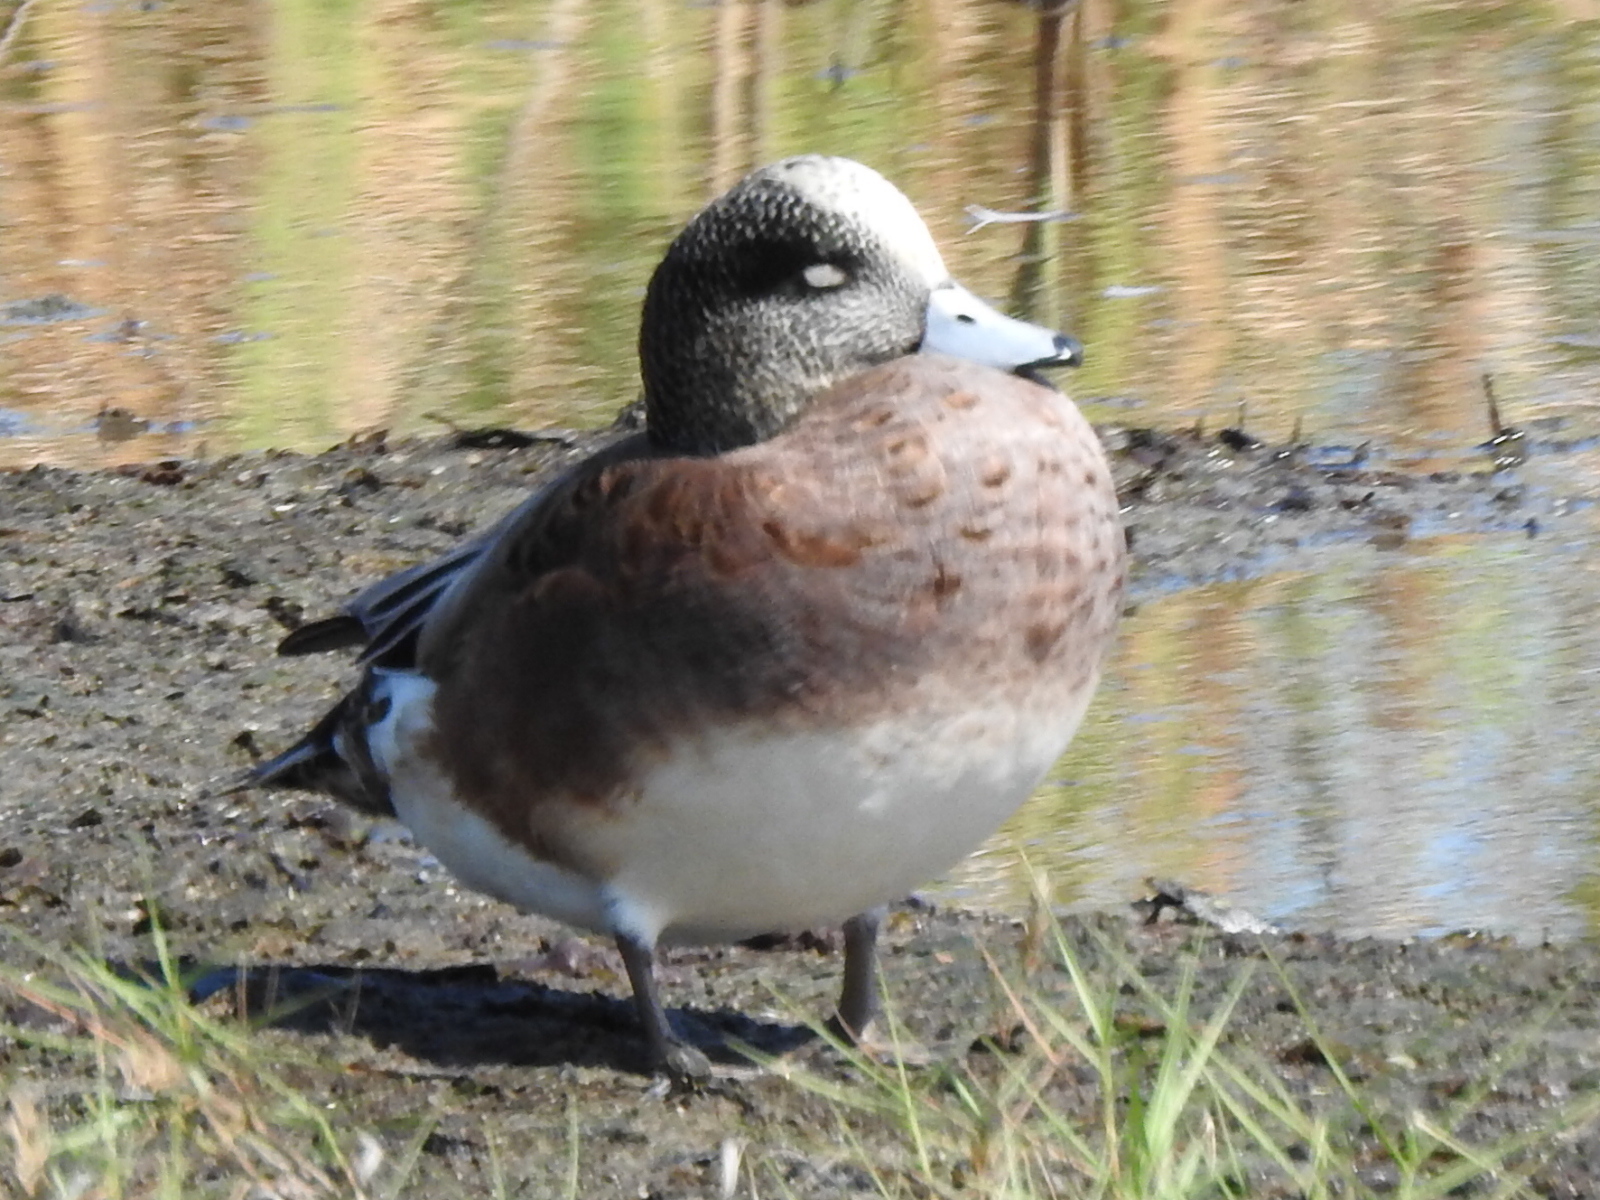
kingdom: Animalia
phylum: Chordata
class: Aves
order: Anseriformes
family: Anatidae
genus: Mareca
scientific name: Mareca americana
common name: American wigeon
